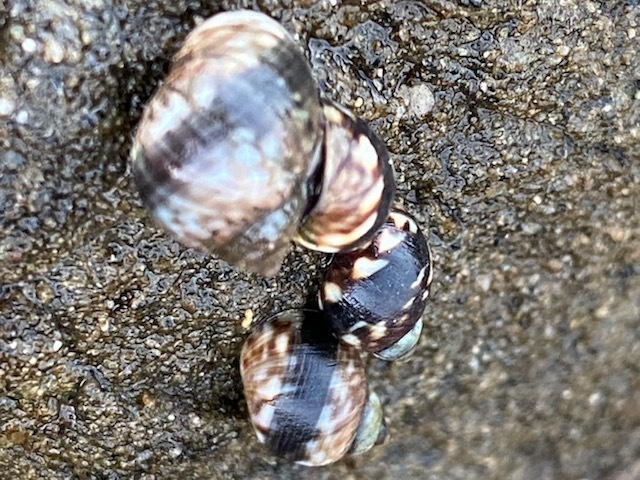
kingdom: Animalia
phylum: Mollusca
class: Gastropoda
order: Littorinimorpha
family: Littorinidae
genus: Littorina
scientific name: Littorina keenae
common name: Eroded periwinkle
